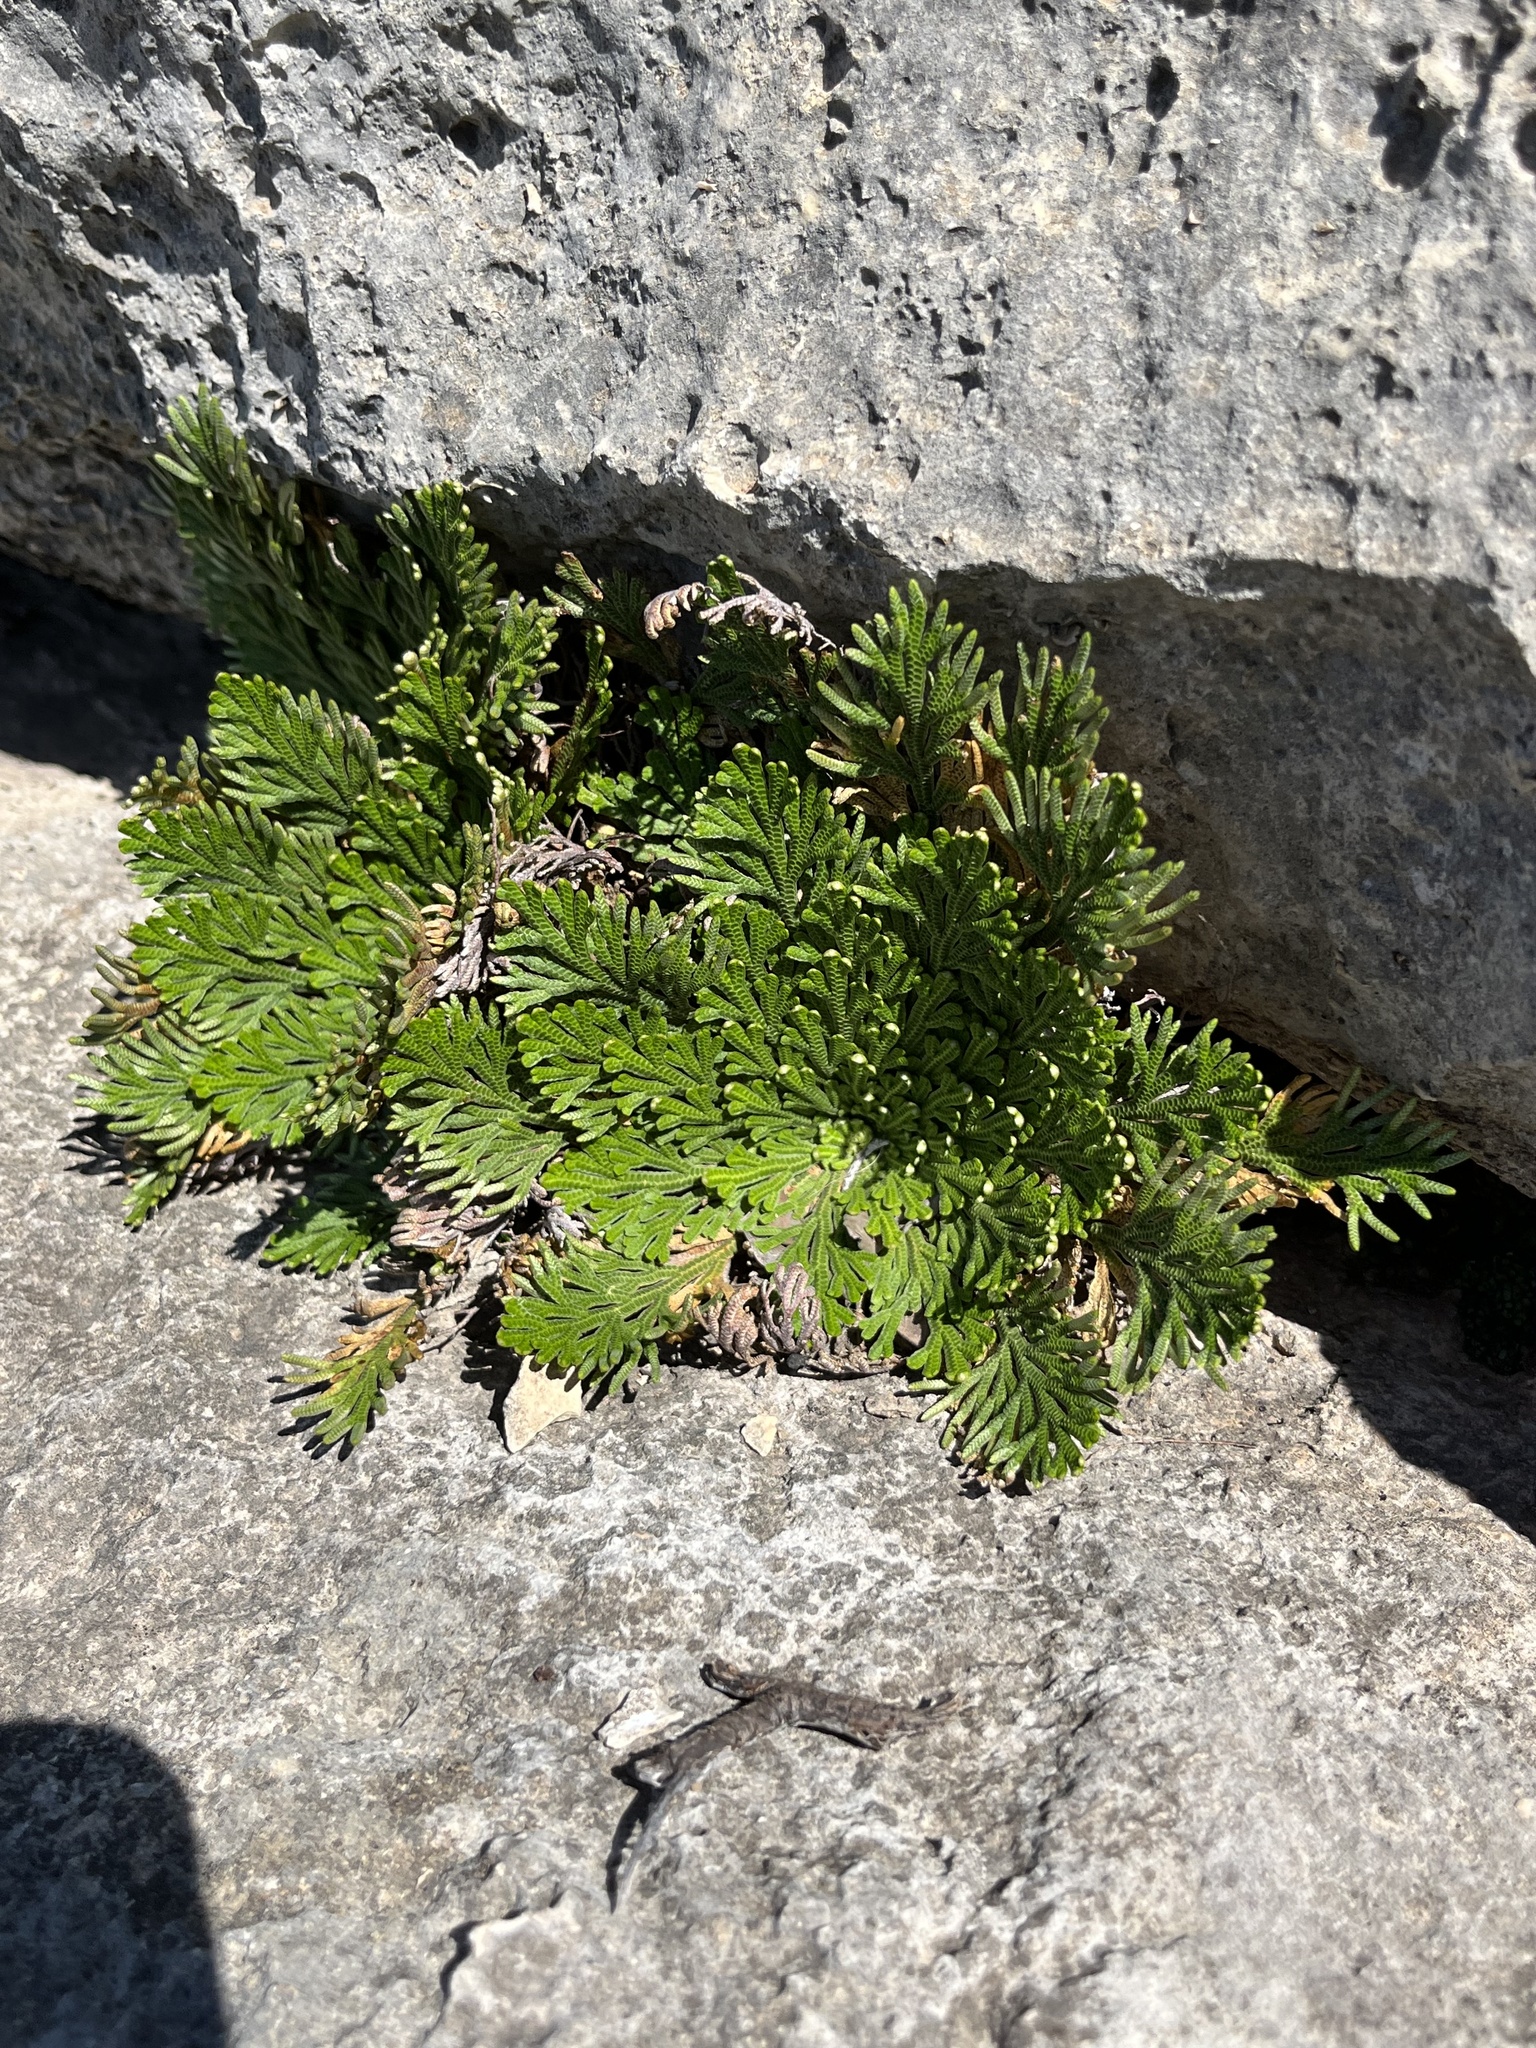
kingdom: Plantae
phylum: Tracheophyta
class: Lycopodiopsida
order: Selaginellales
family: Selaginellaceae
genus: Selaginella
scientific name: Selaginella lepidophylla
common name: Rose-of-jericho
